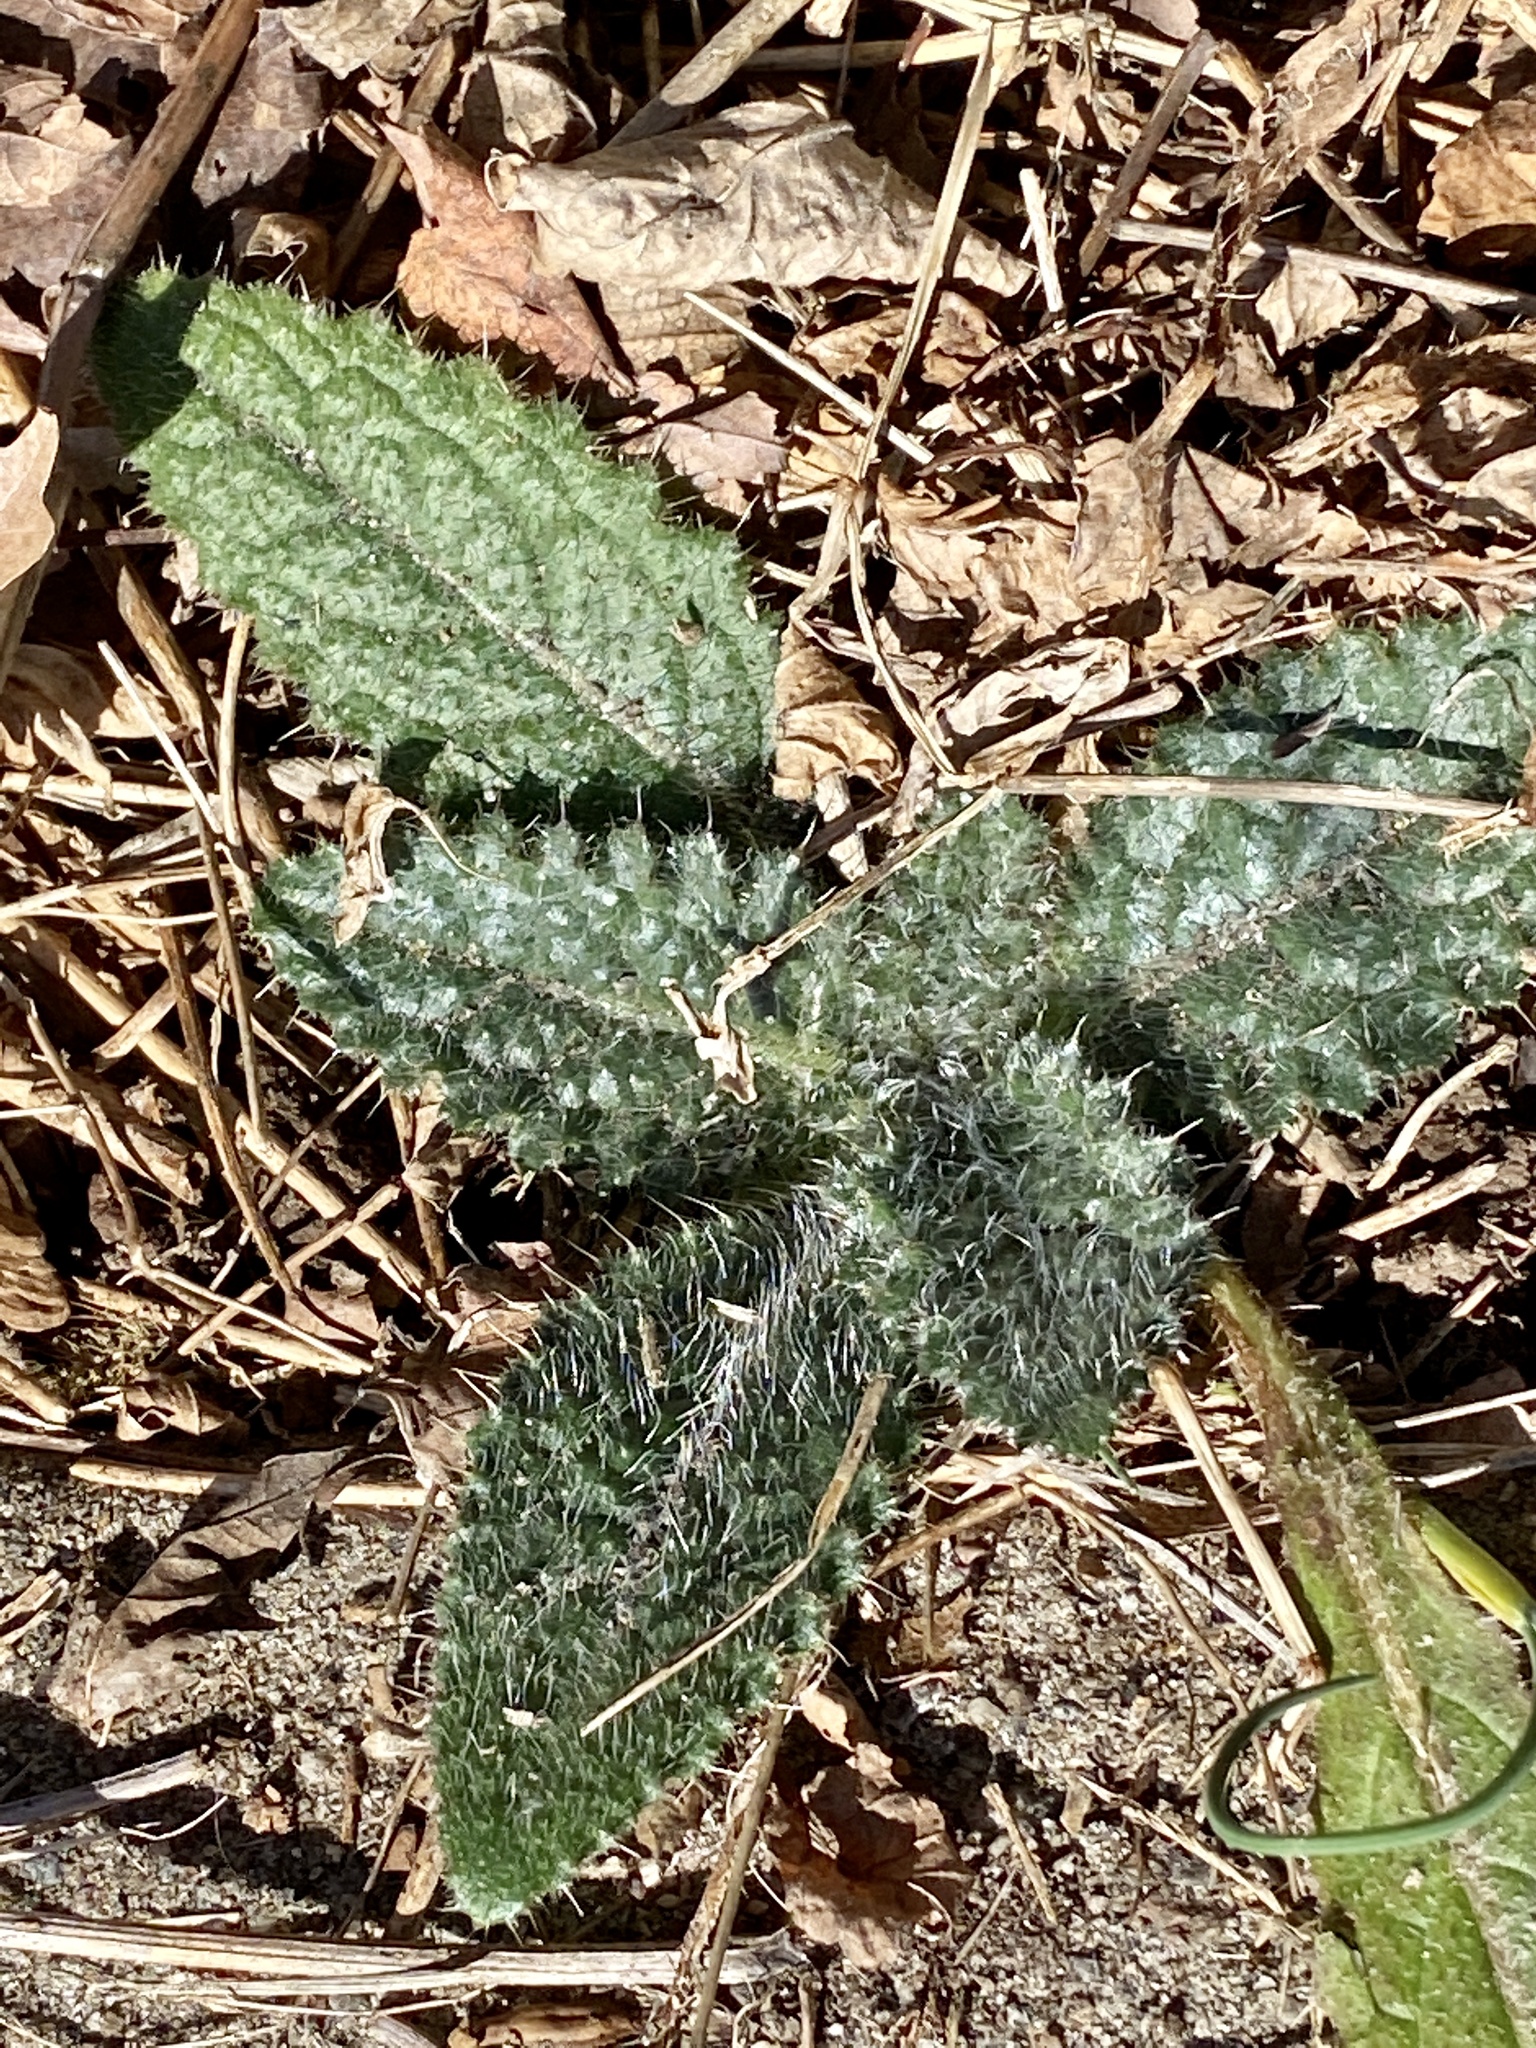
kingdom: Plantae
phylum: Tracheophyta
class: Magnoliopsida
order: Asterales
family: Asteraceae
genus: Cirsium
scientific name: Cirsium vulgare
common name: Bull thistle
